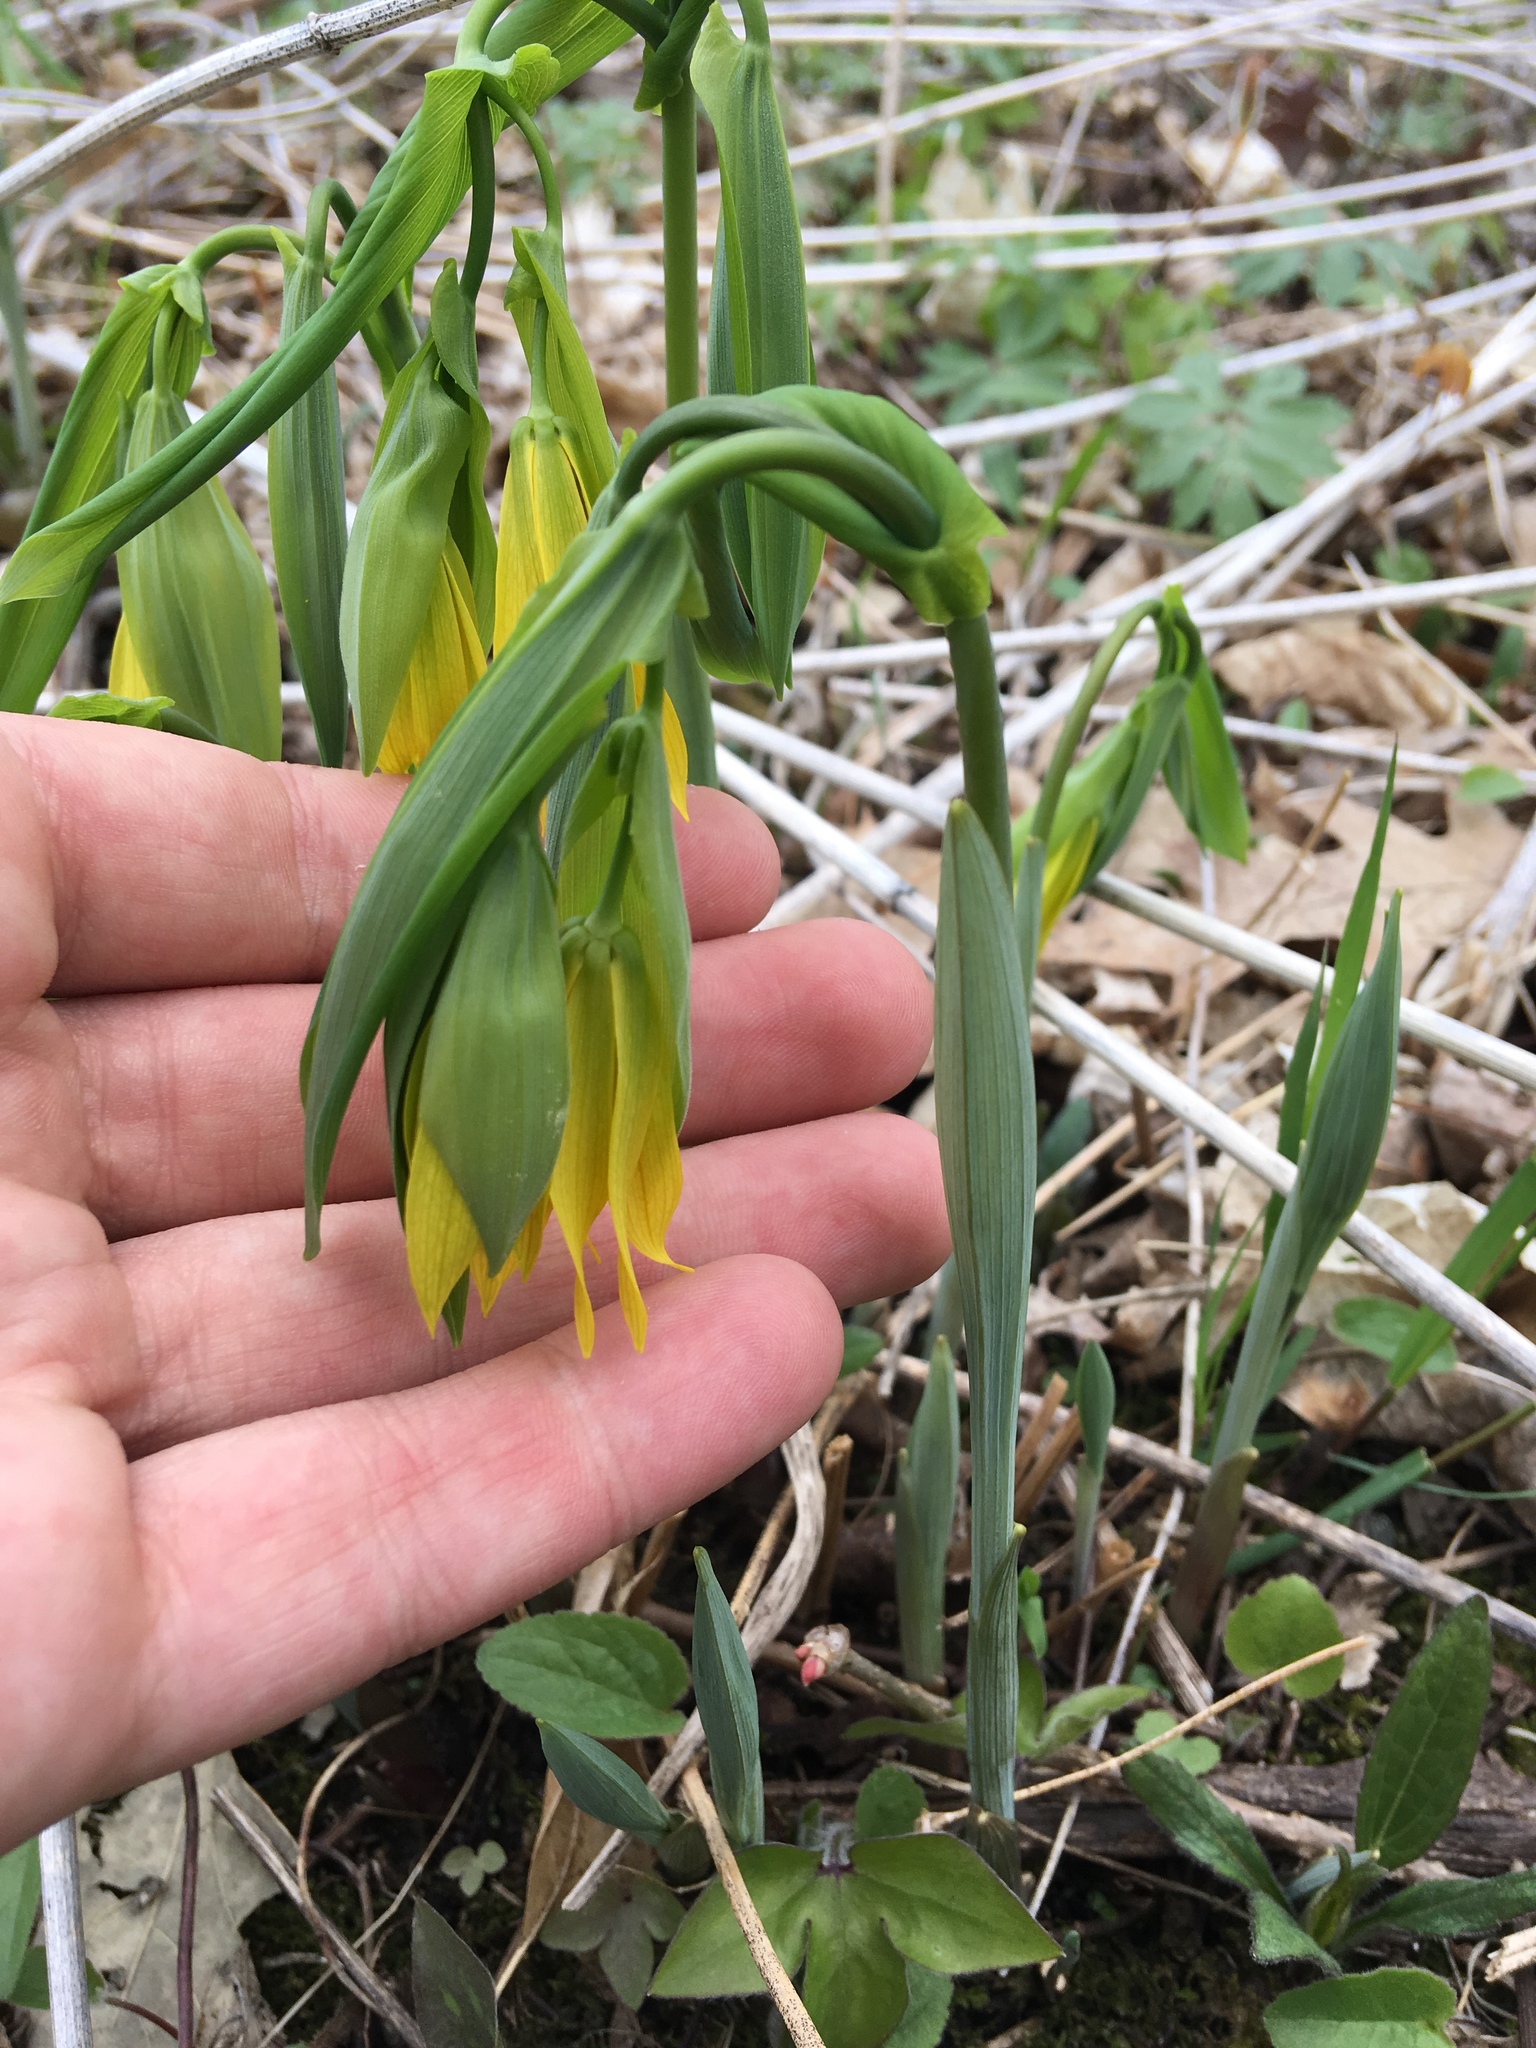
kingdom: Plantae
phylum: Tracheophyta
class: Liliopsida
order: Liliales
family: Colchicaceae
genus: Uvularia
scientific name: Uvularia grandiflora
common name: Bellwort
